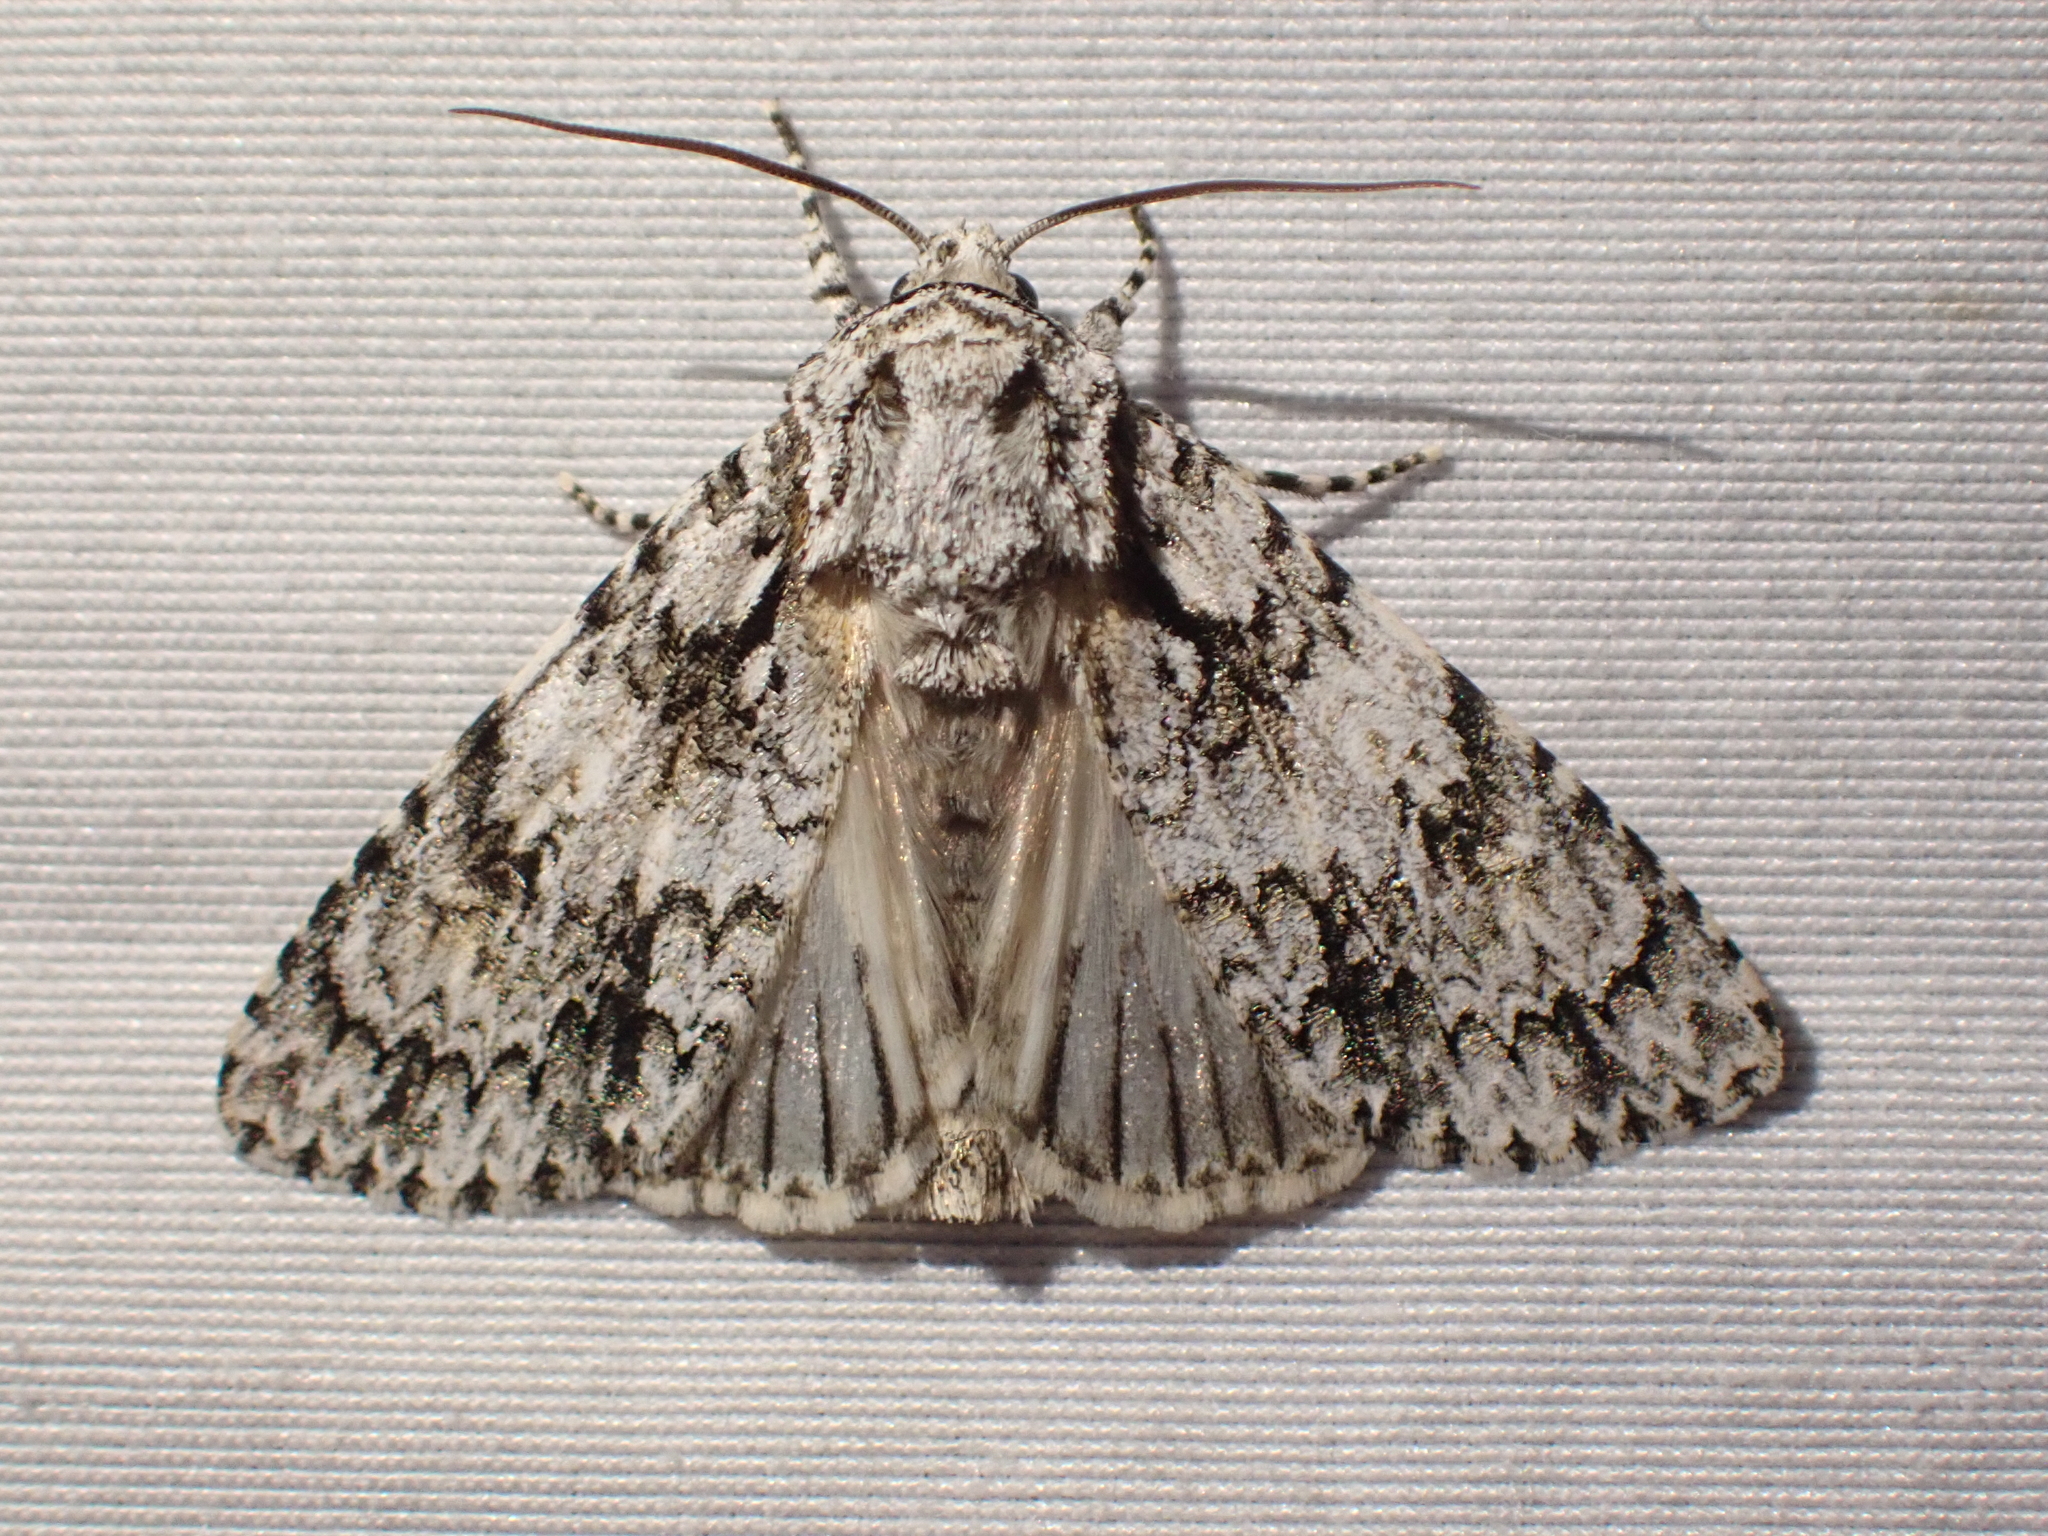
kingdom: Animalia
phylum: Arthropoda
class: Insecta
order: Lepidoptera
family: Noctuidae
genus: Acronicta
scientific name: Acronicta marmorata
